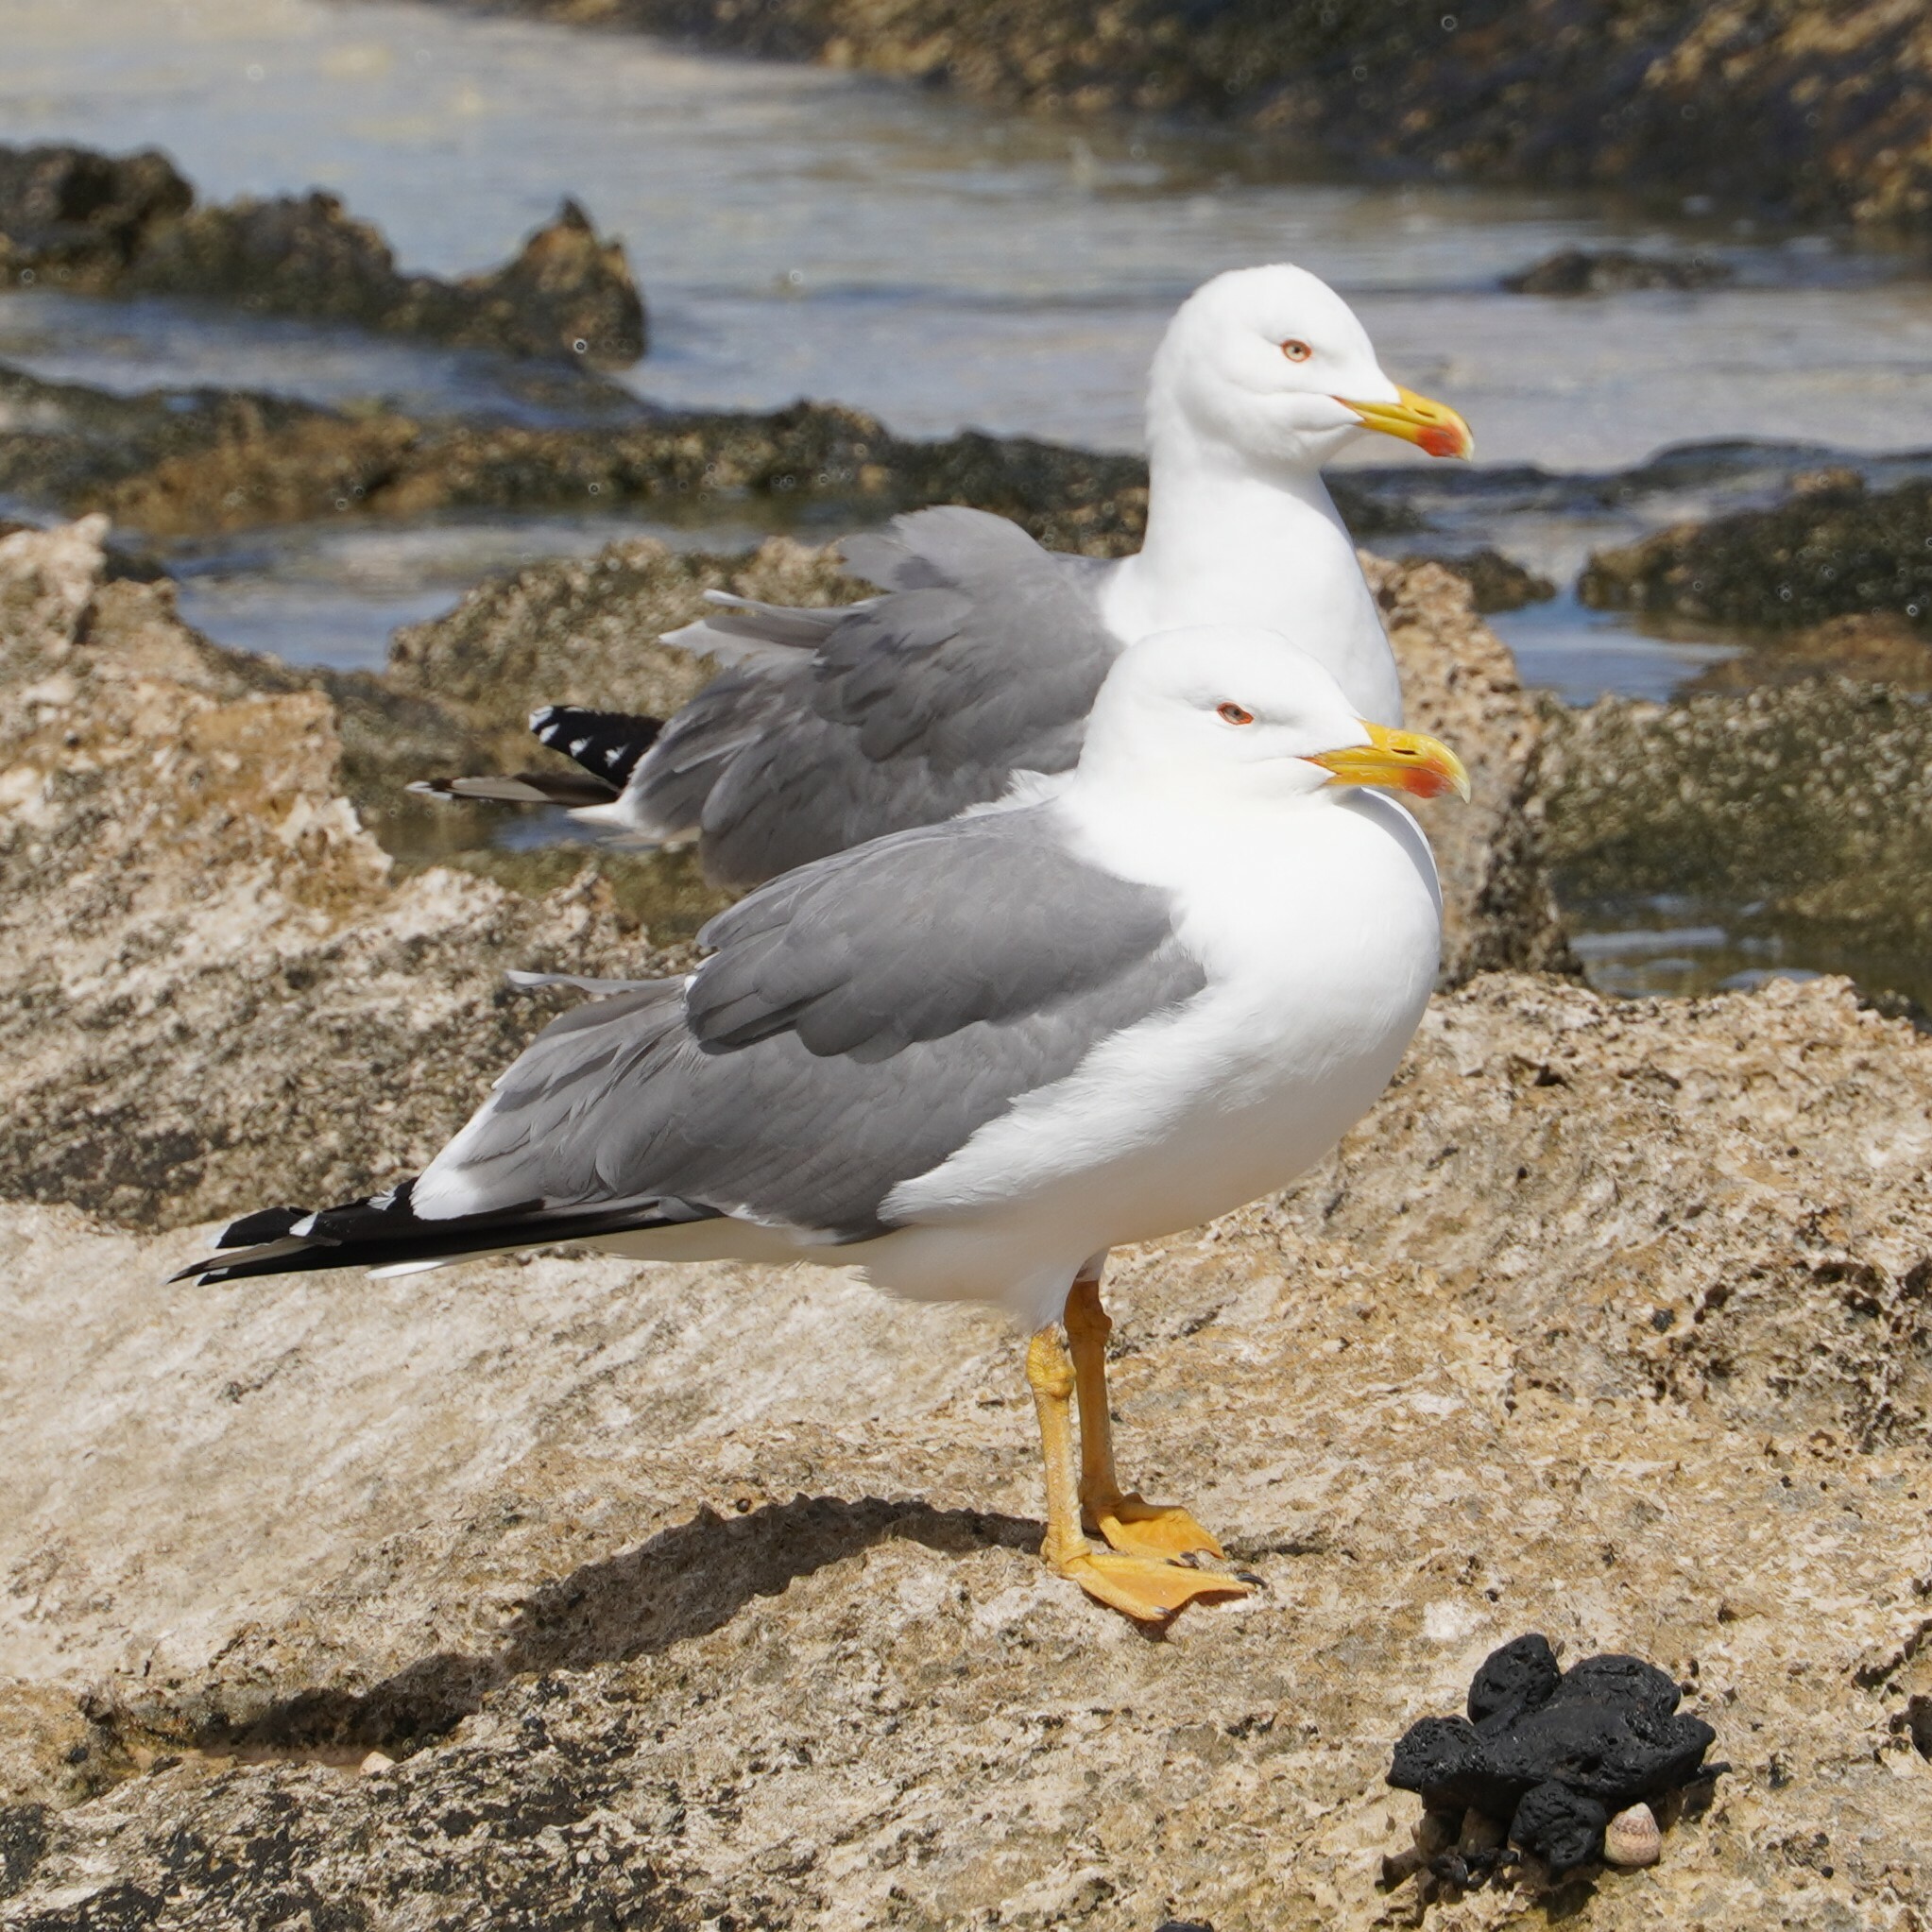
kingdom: Animalia
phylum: Chordata
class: Aves
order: Charadriiformes
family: Laridae
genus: Larus
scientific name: Larus michahellis
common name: Yellow-legged gull
